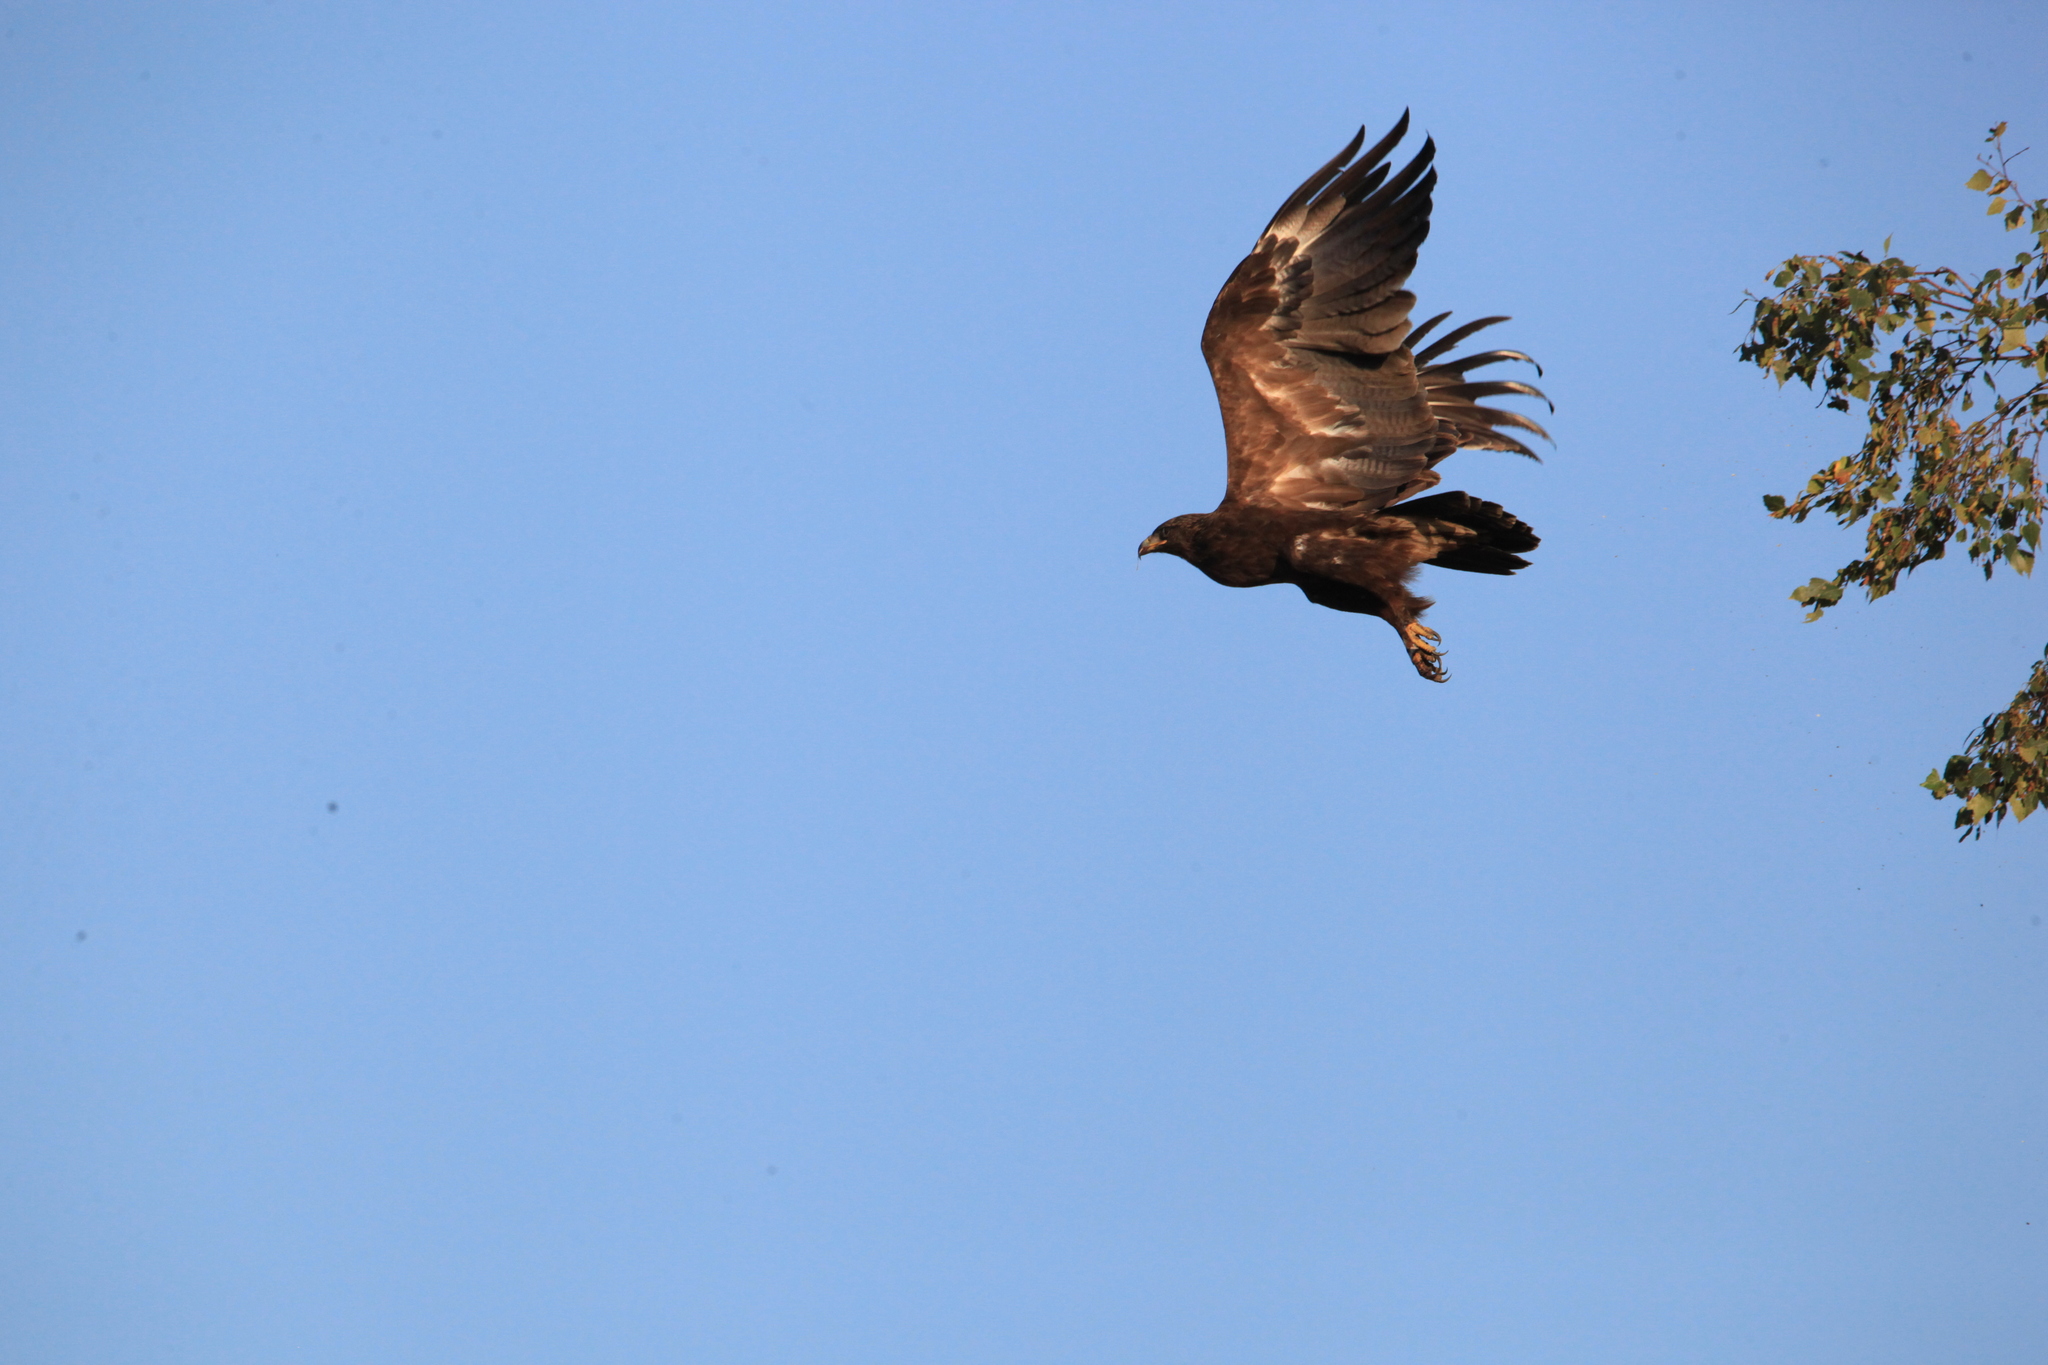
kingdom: Animalia
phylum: Chordata
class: Aves
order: Accipitriformes
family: Accipitridae
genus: Aquila
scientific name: Aquila clanga
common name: Greater spotted eagle
